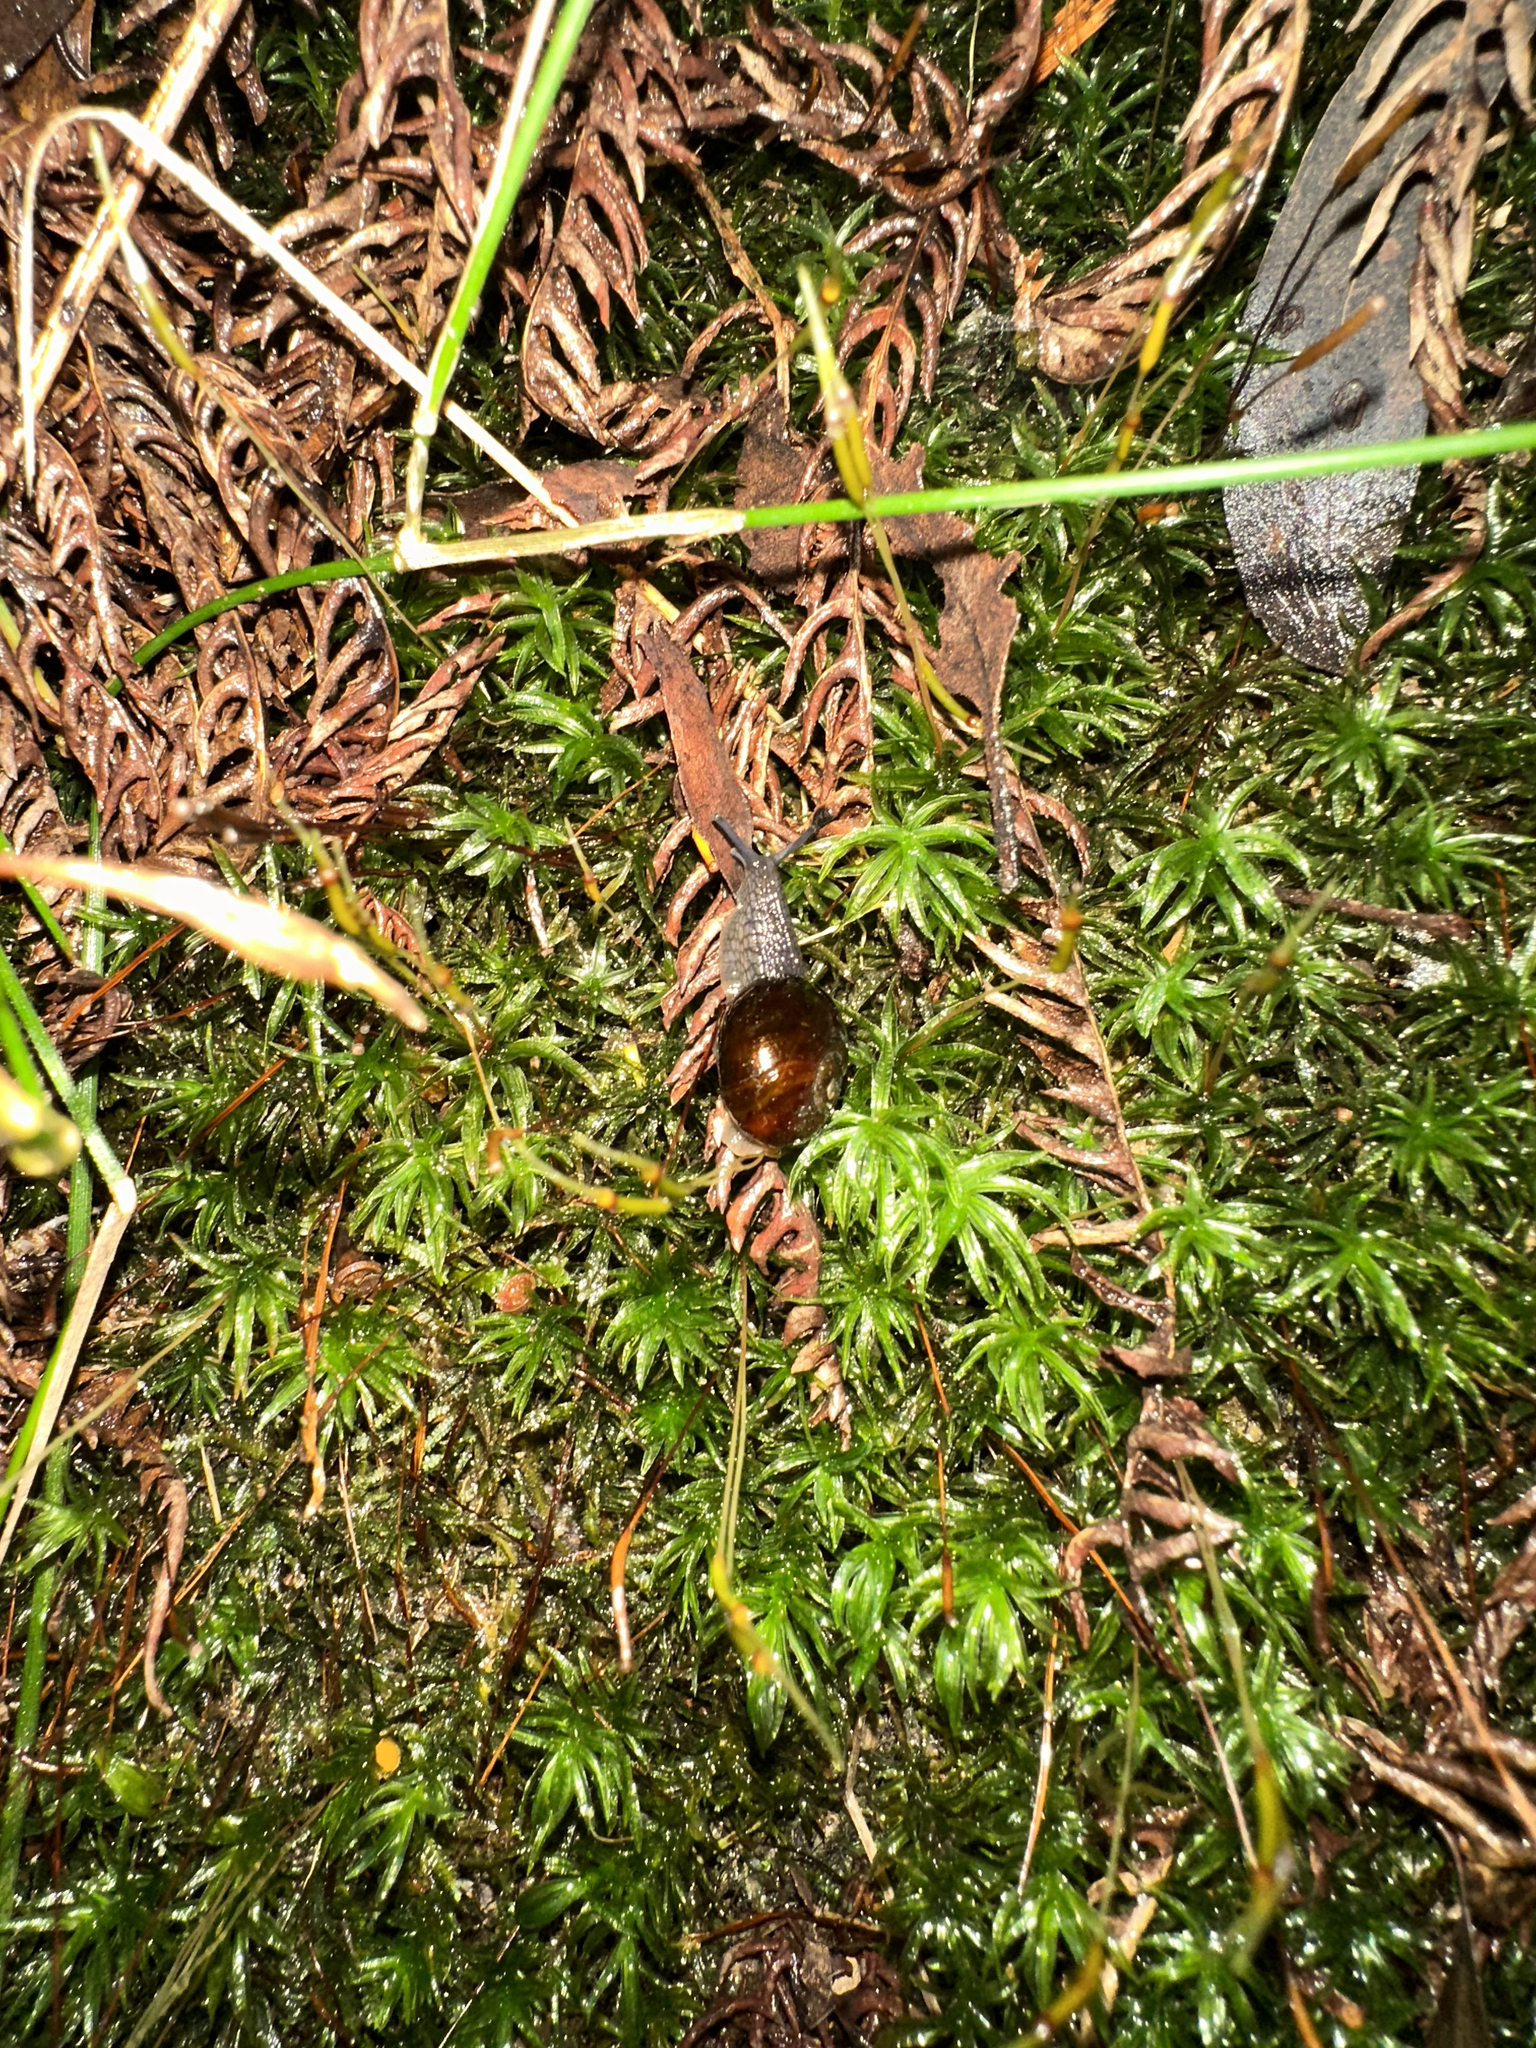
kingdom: Animalia
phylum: Mollusca
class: Gastropoda
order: Stylommatophora
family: Rhytididae
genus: Victaphanta
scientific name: Victaphanta compacta
